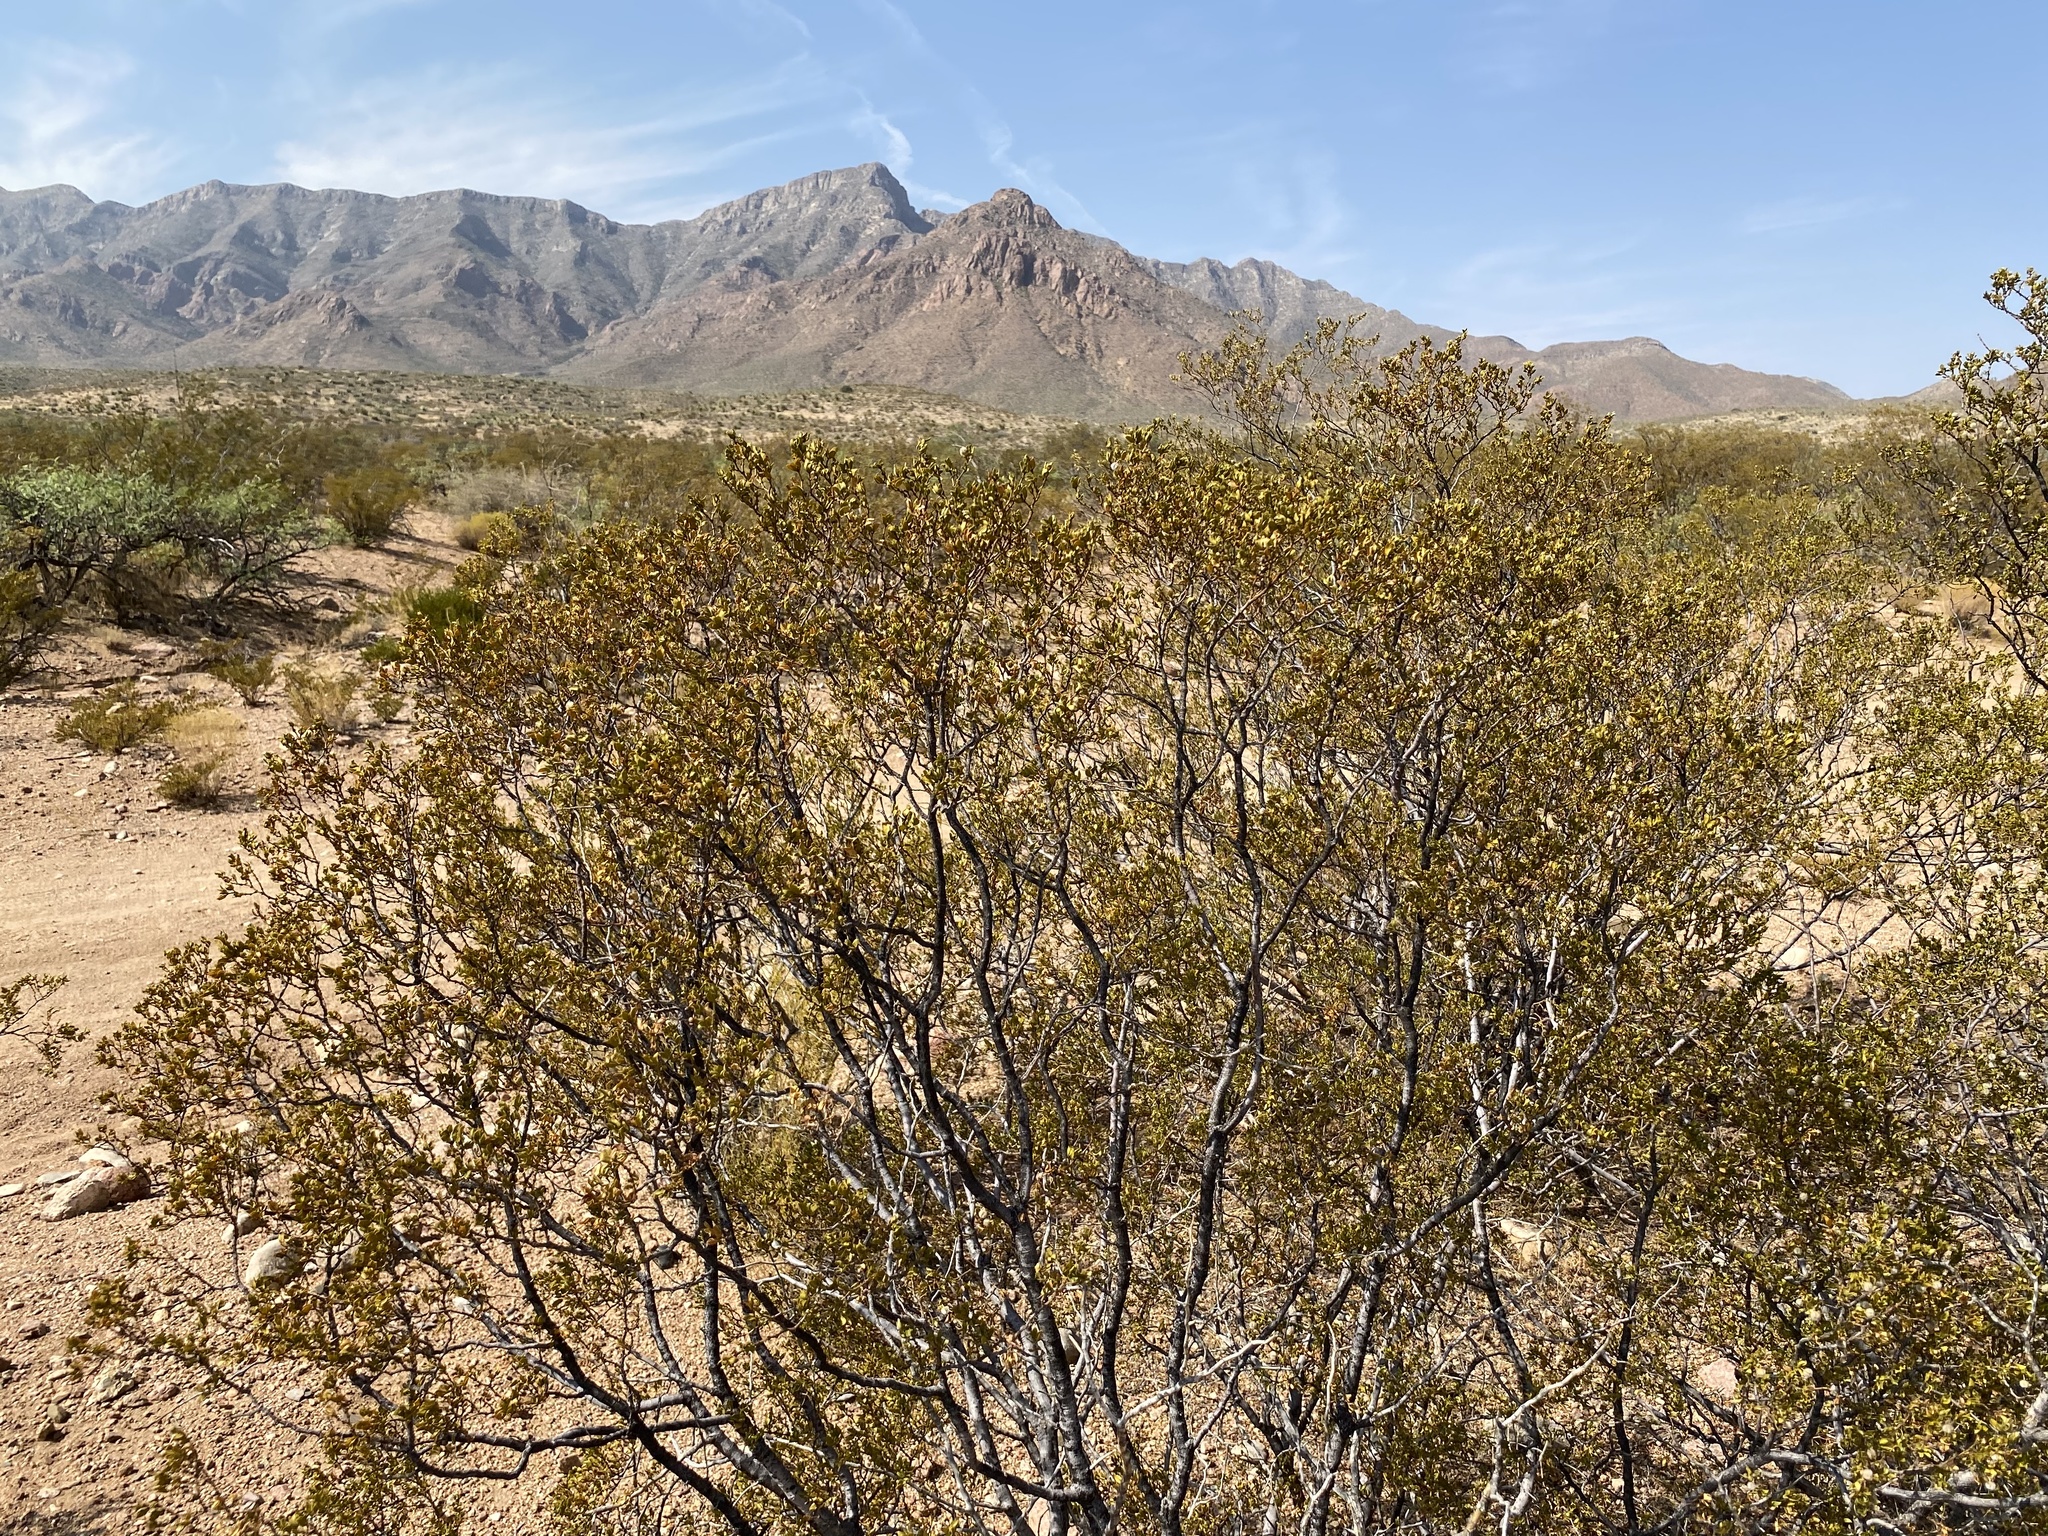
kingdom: Plantae
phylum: Tracheophyta
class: Magnoliopsida
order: Zygophyllales
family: Zygophyllaceae
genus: Larrea
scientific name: Larrea tridentata
